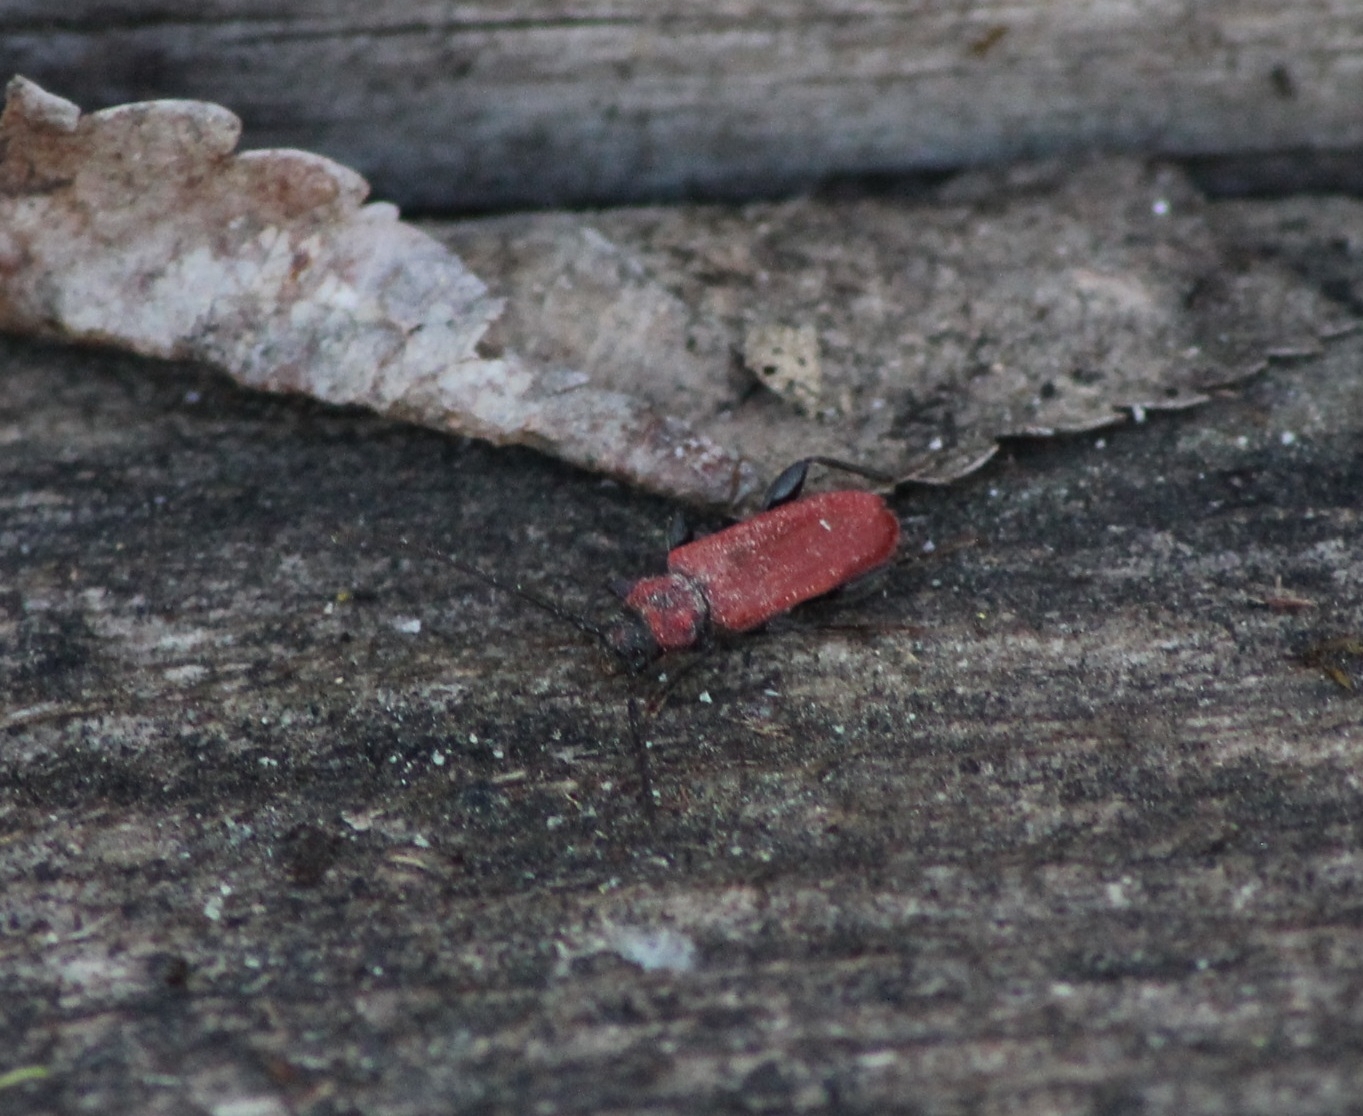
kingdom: Animalia
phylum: Arthropoda
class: Insecta
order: Coleoptera
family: Cerambycidae
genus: Pyrrhidium
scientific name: Pyrrhidium sanguineum
